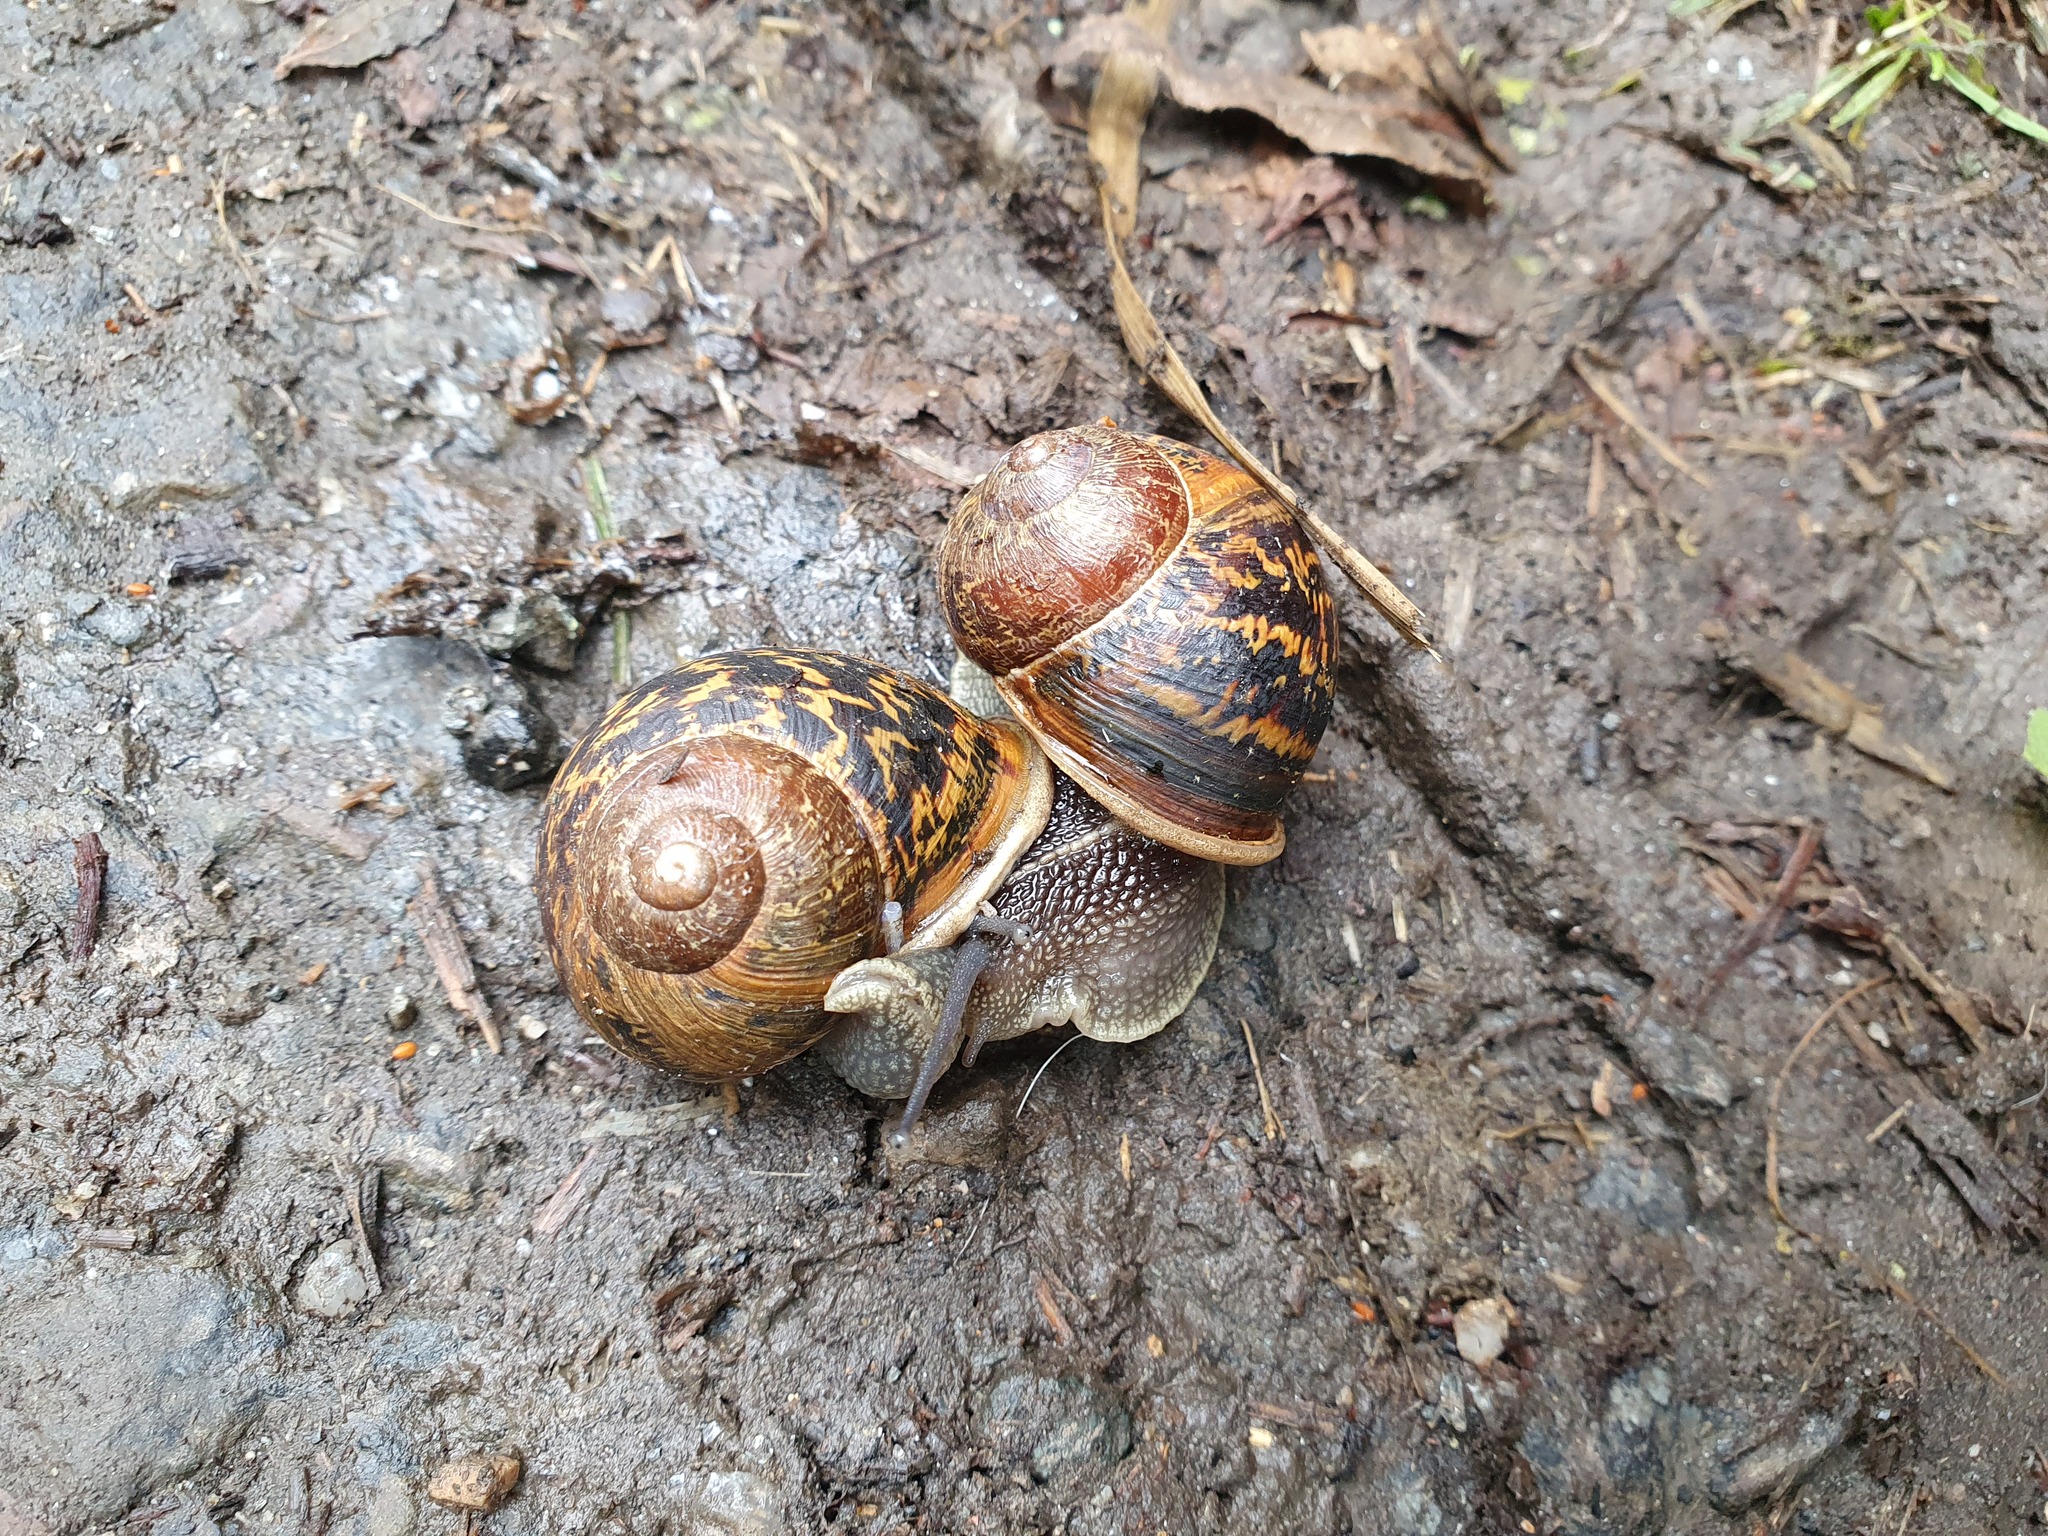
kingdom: Animalia
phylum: Mollusca
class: Gastropoda
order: Stylommatophora
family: Helicidae
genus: Cornu
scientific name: Cornu aspersum
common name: Brown garden snail
